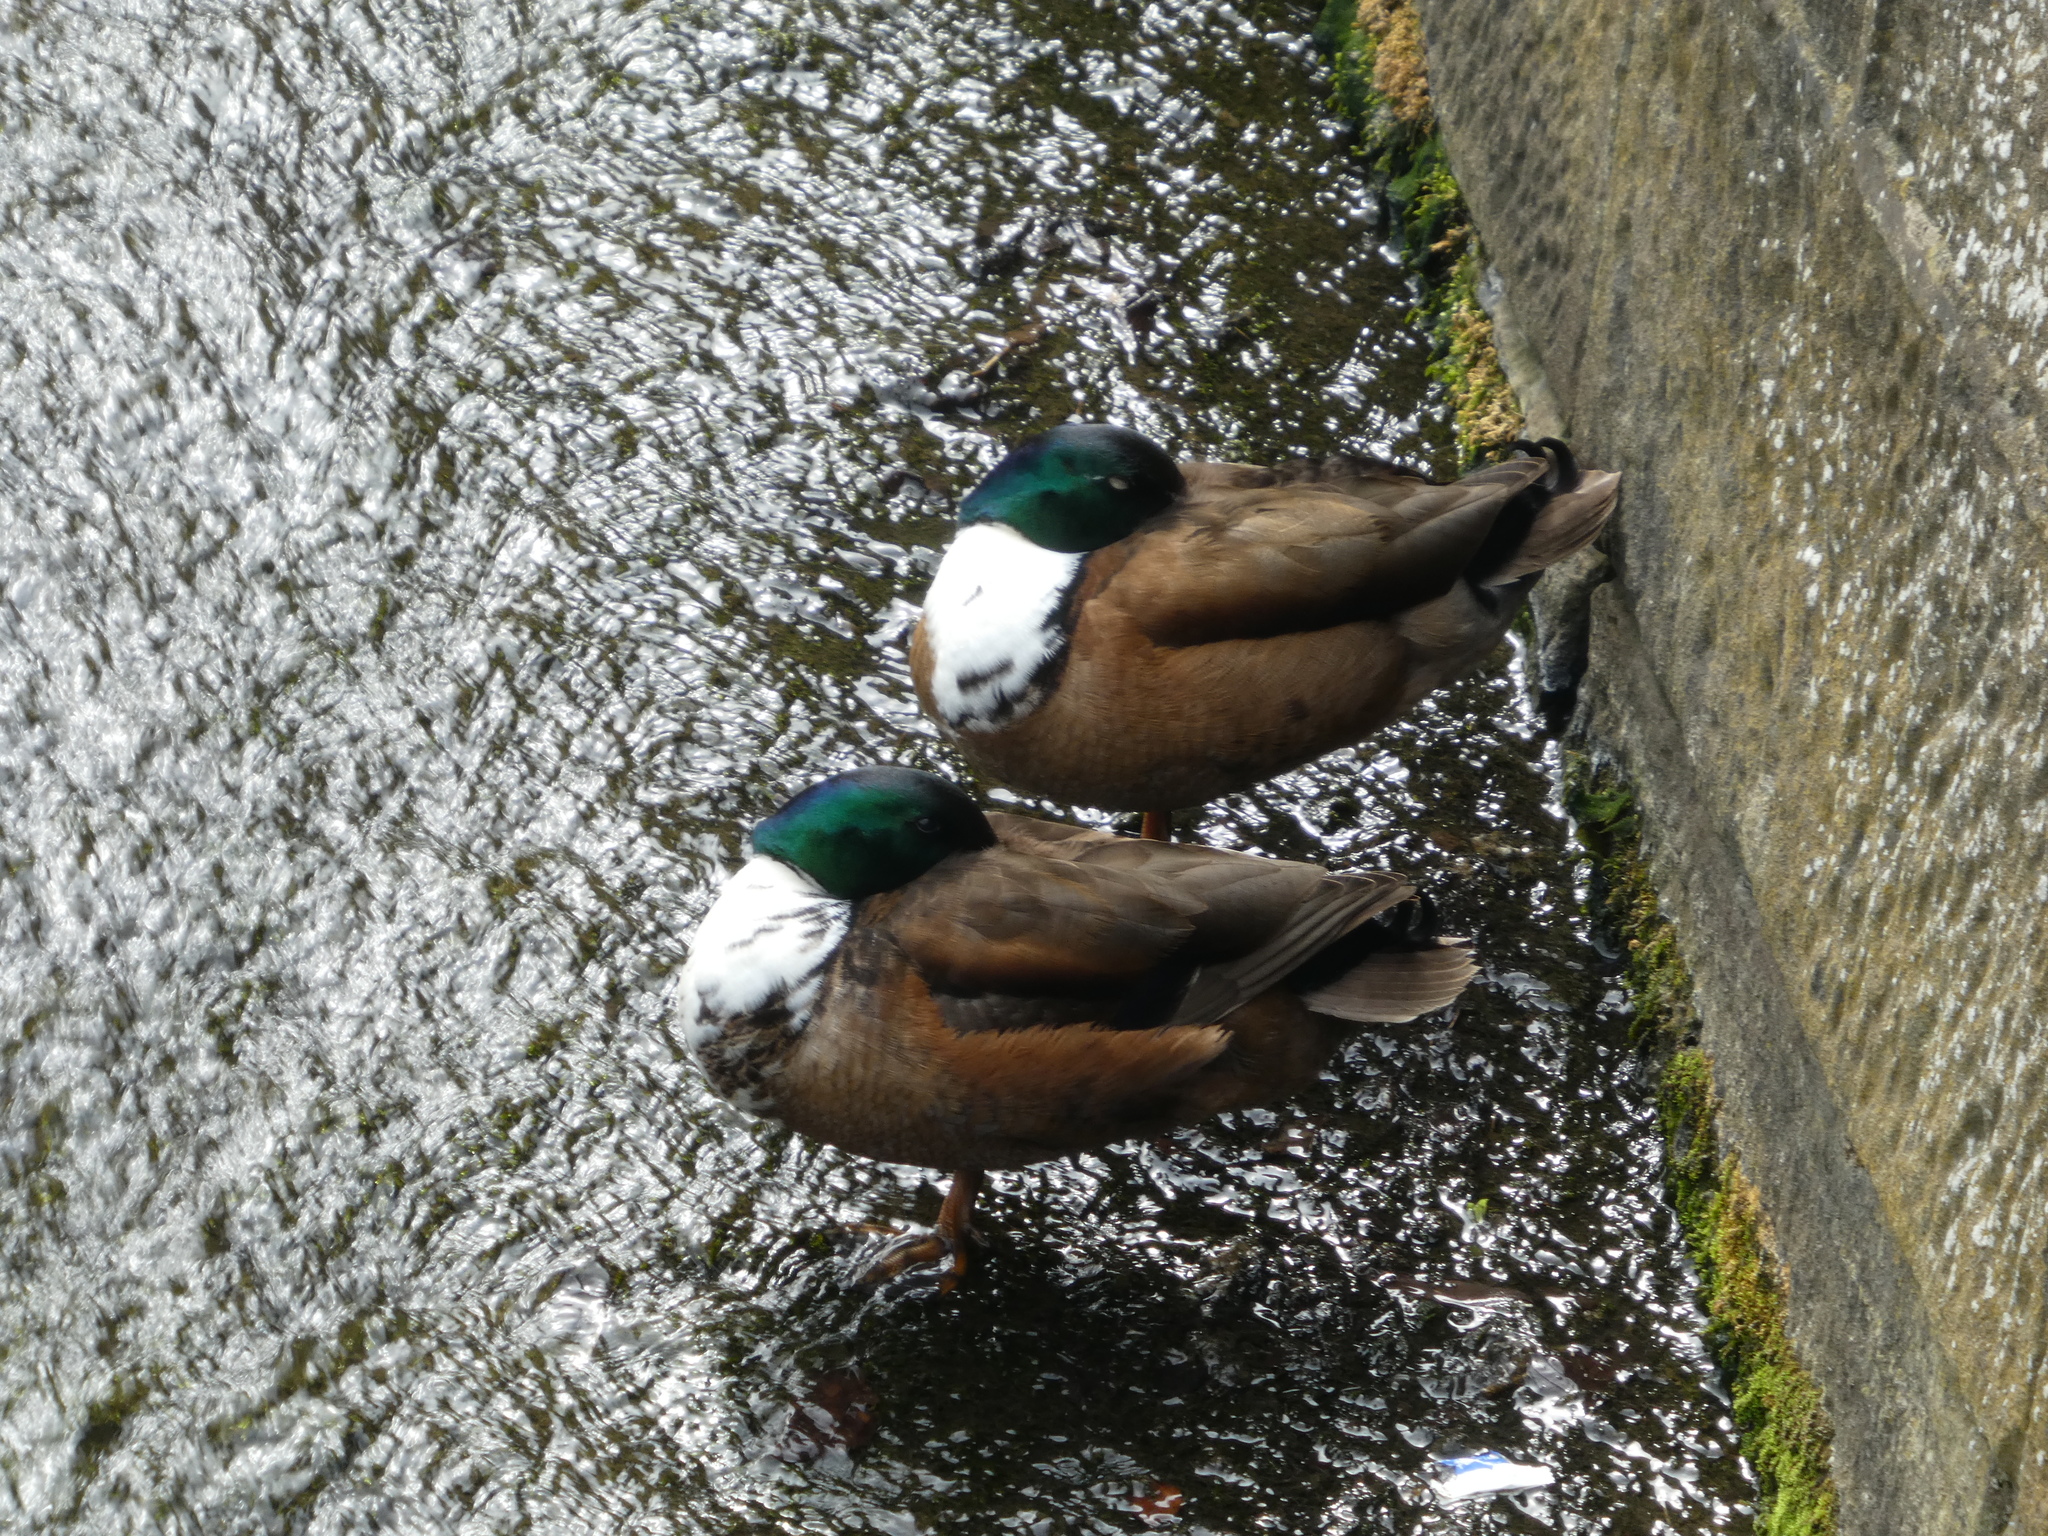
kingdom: Animalia
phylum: Chordata
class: Aves
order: Anseriformes
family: Anatidae
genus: Anas
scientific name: Anas platyrhynchos
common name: Mallard
